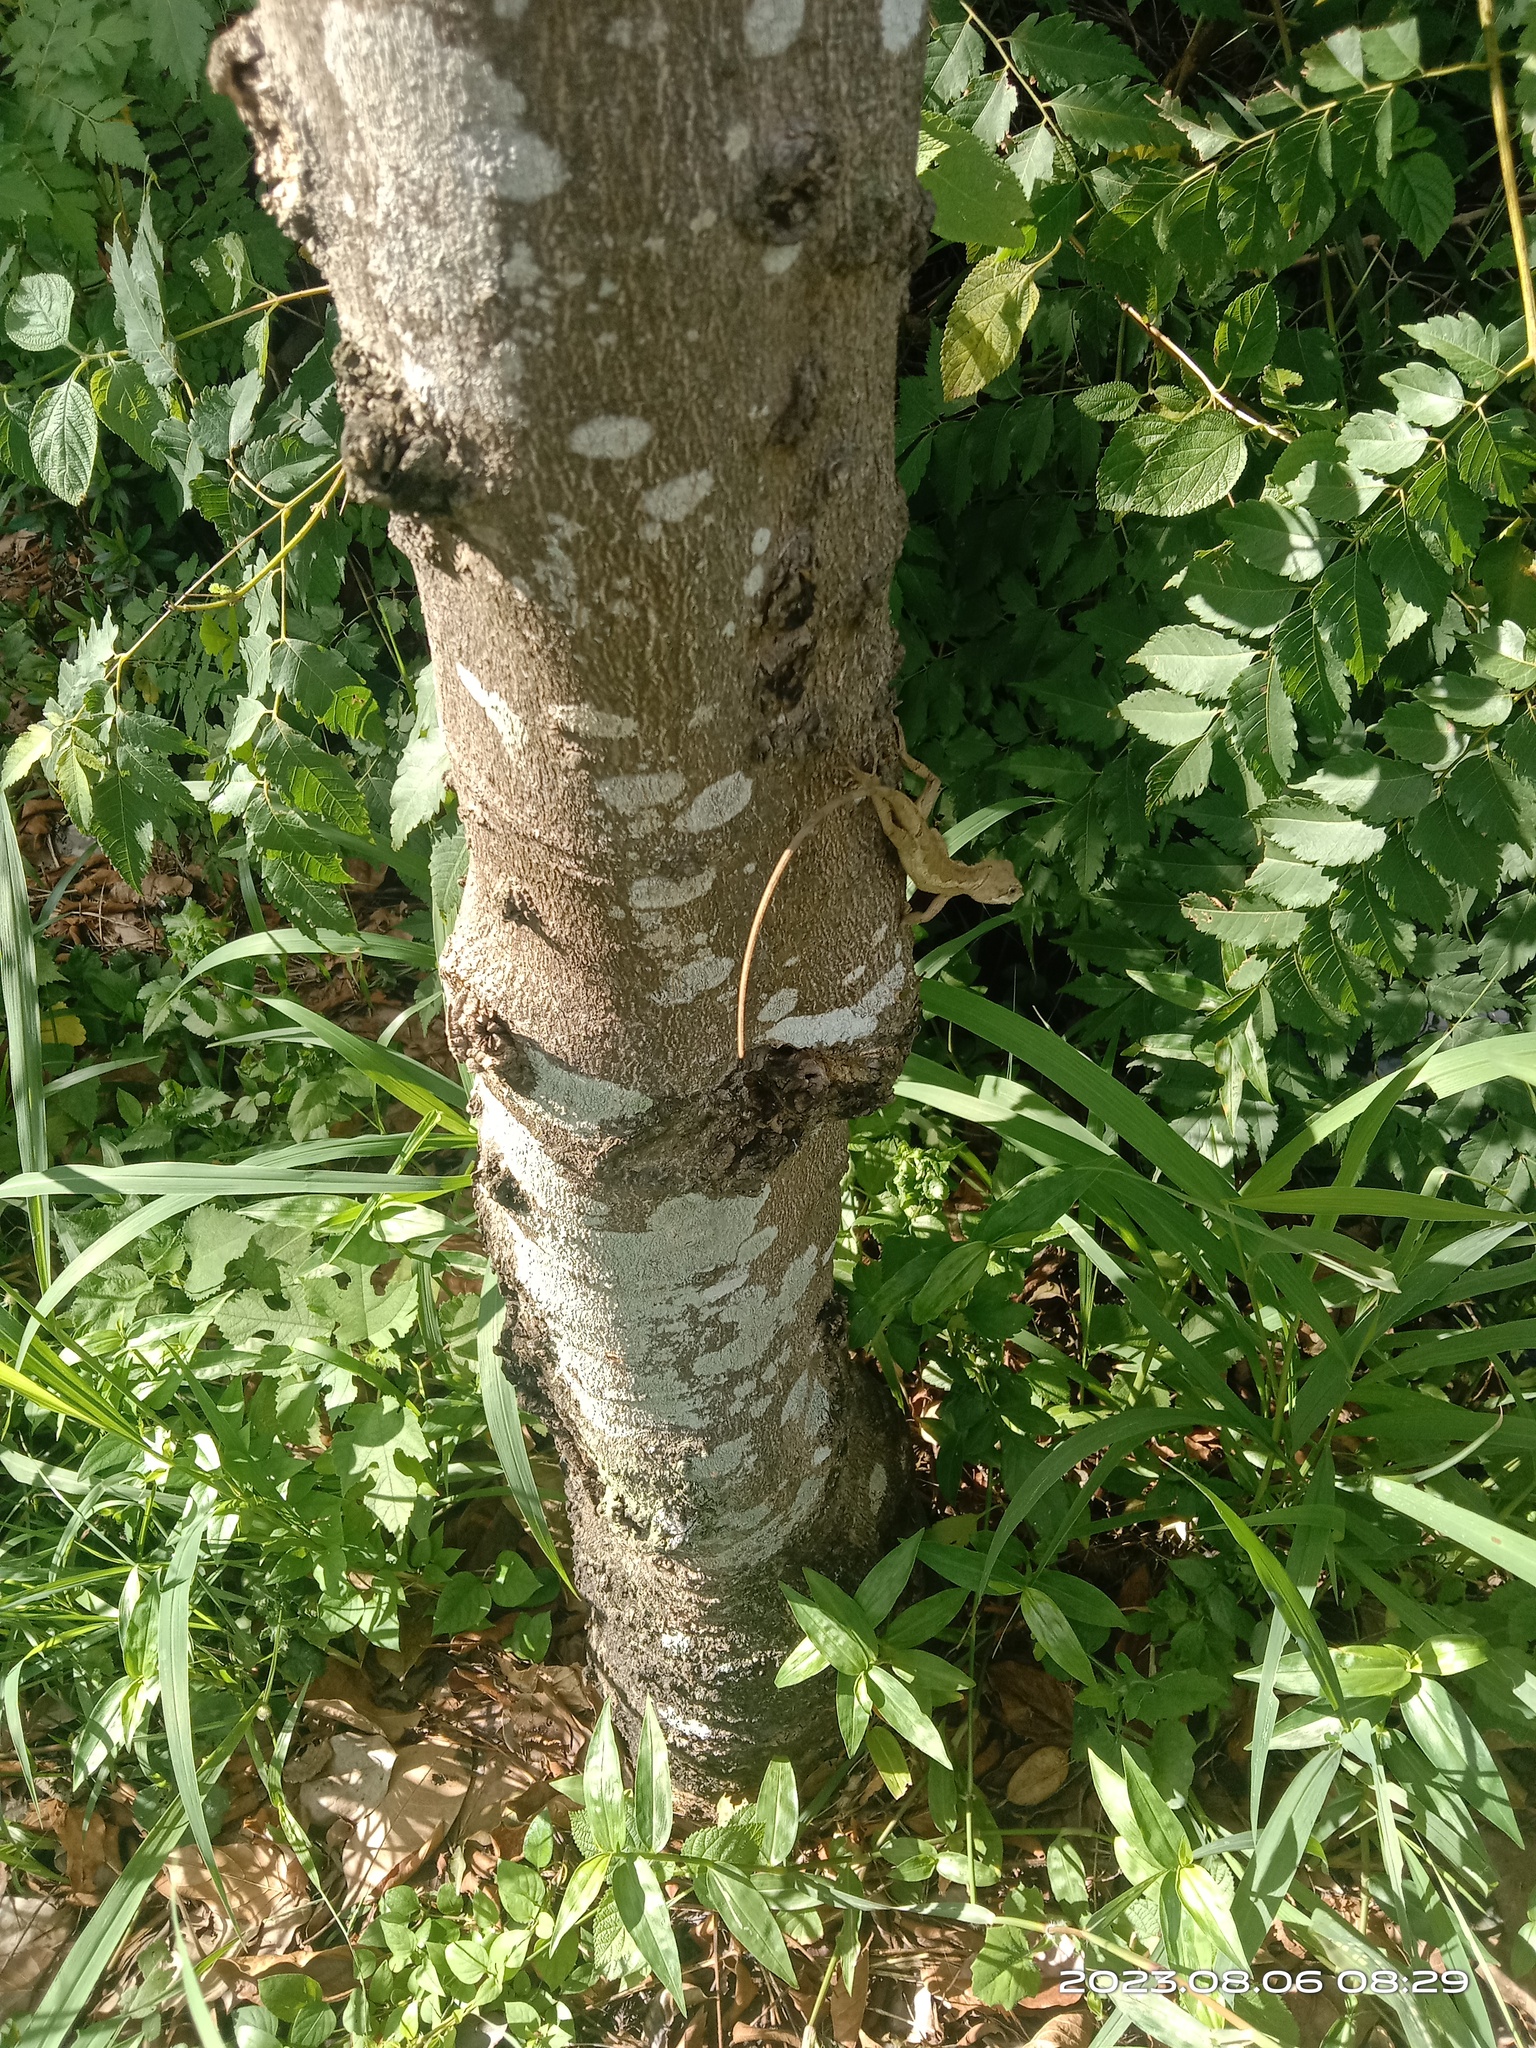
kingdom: Animalia
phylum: Chordata
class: Squamata
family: Agamidae
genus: Diploderma
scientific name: Diploderma swinhonis
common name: Taiwan japalure
